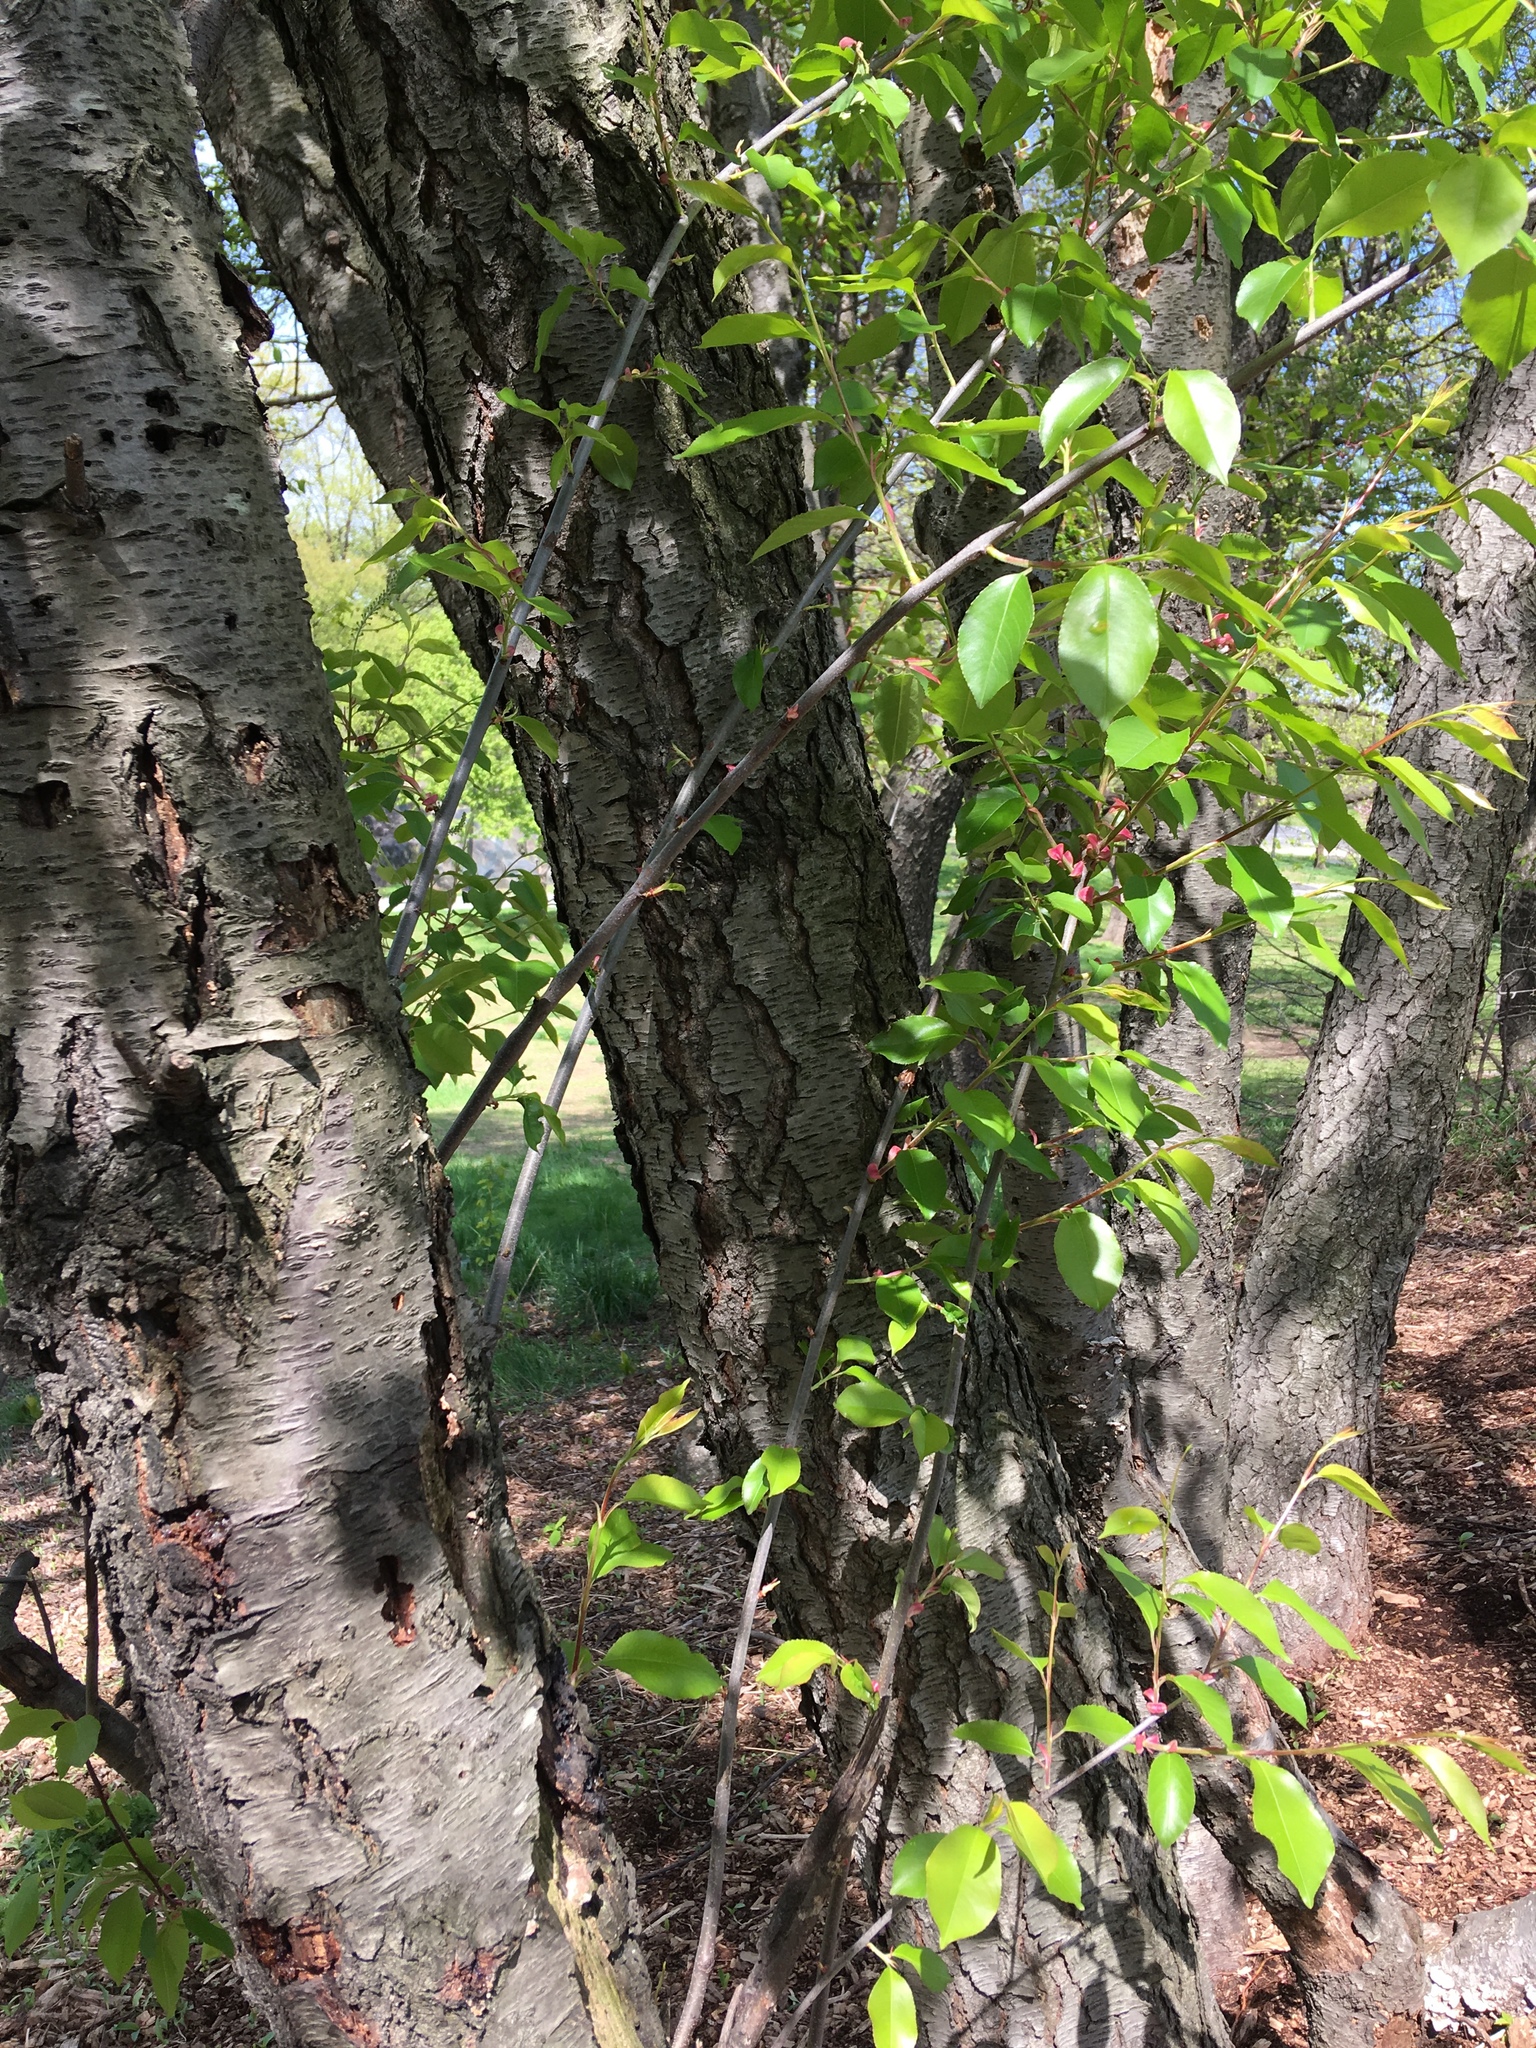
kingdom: Plantae
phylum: Tracheophyta
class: Magnoliopsida
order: Rosales
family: Rosaceae
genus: Prunus
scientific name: Prunus serotina
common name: Black cherry
